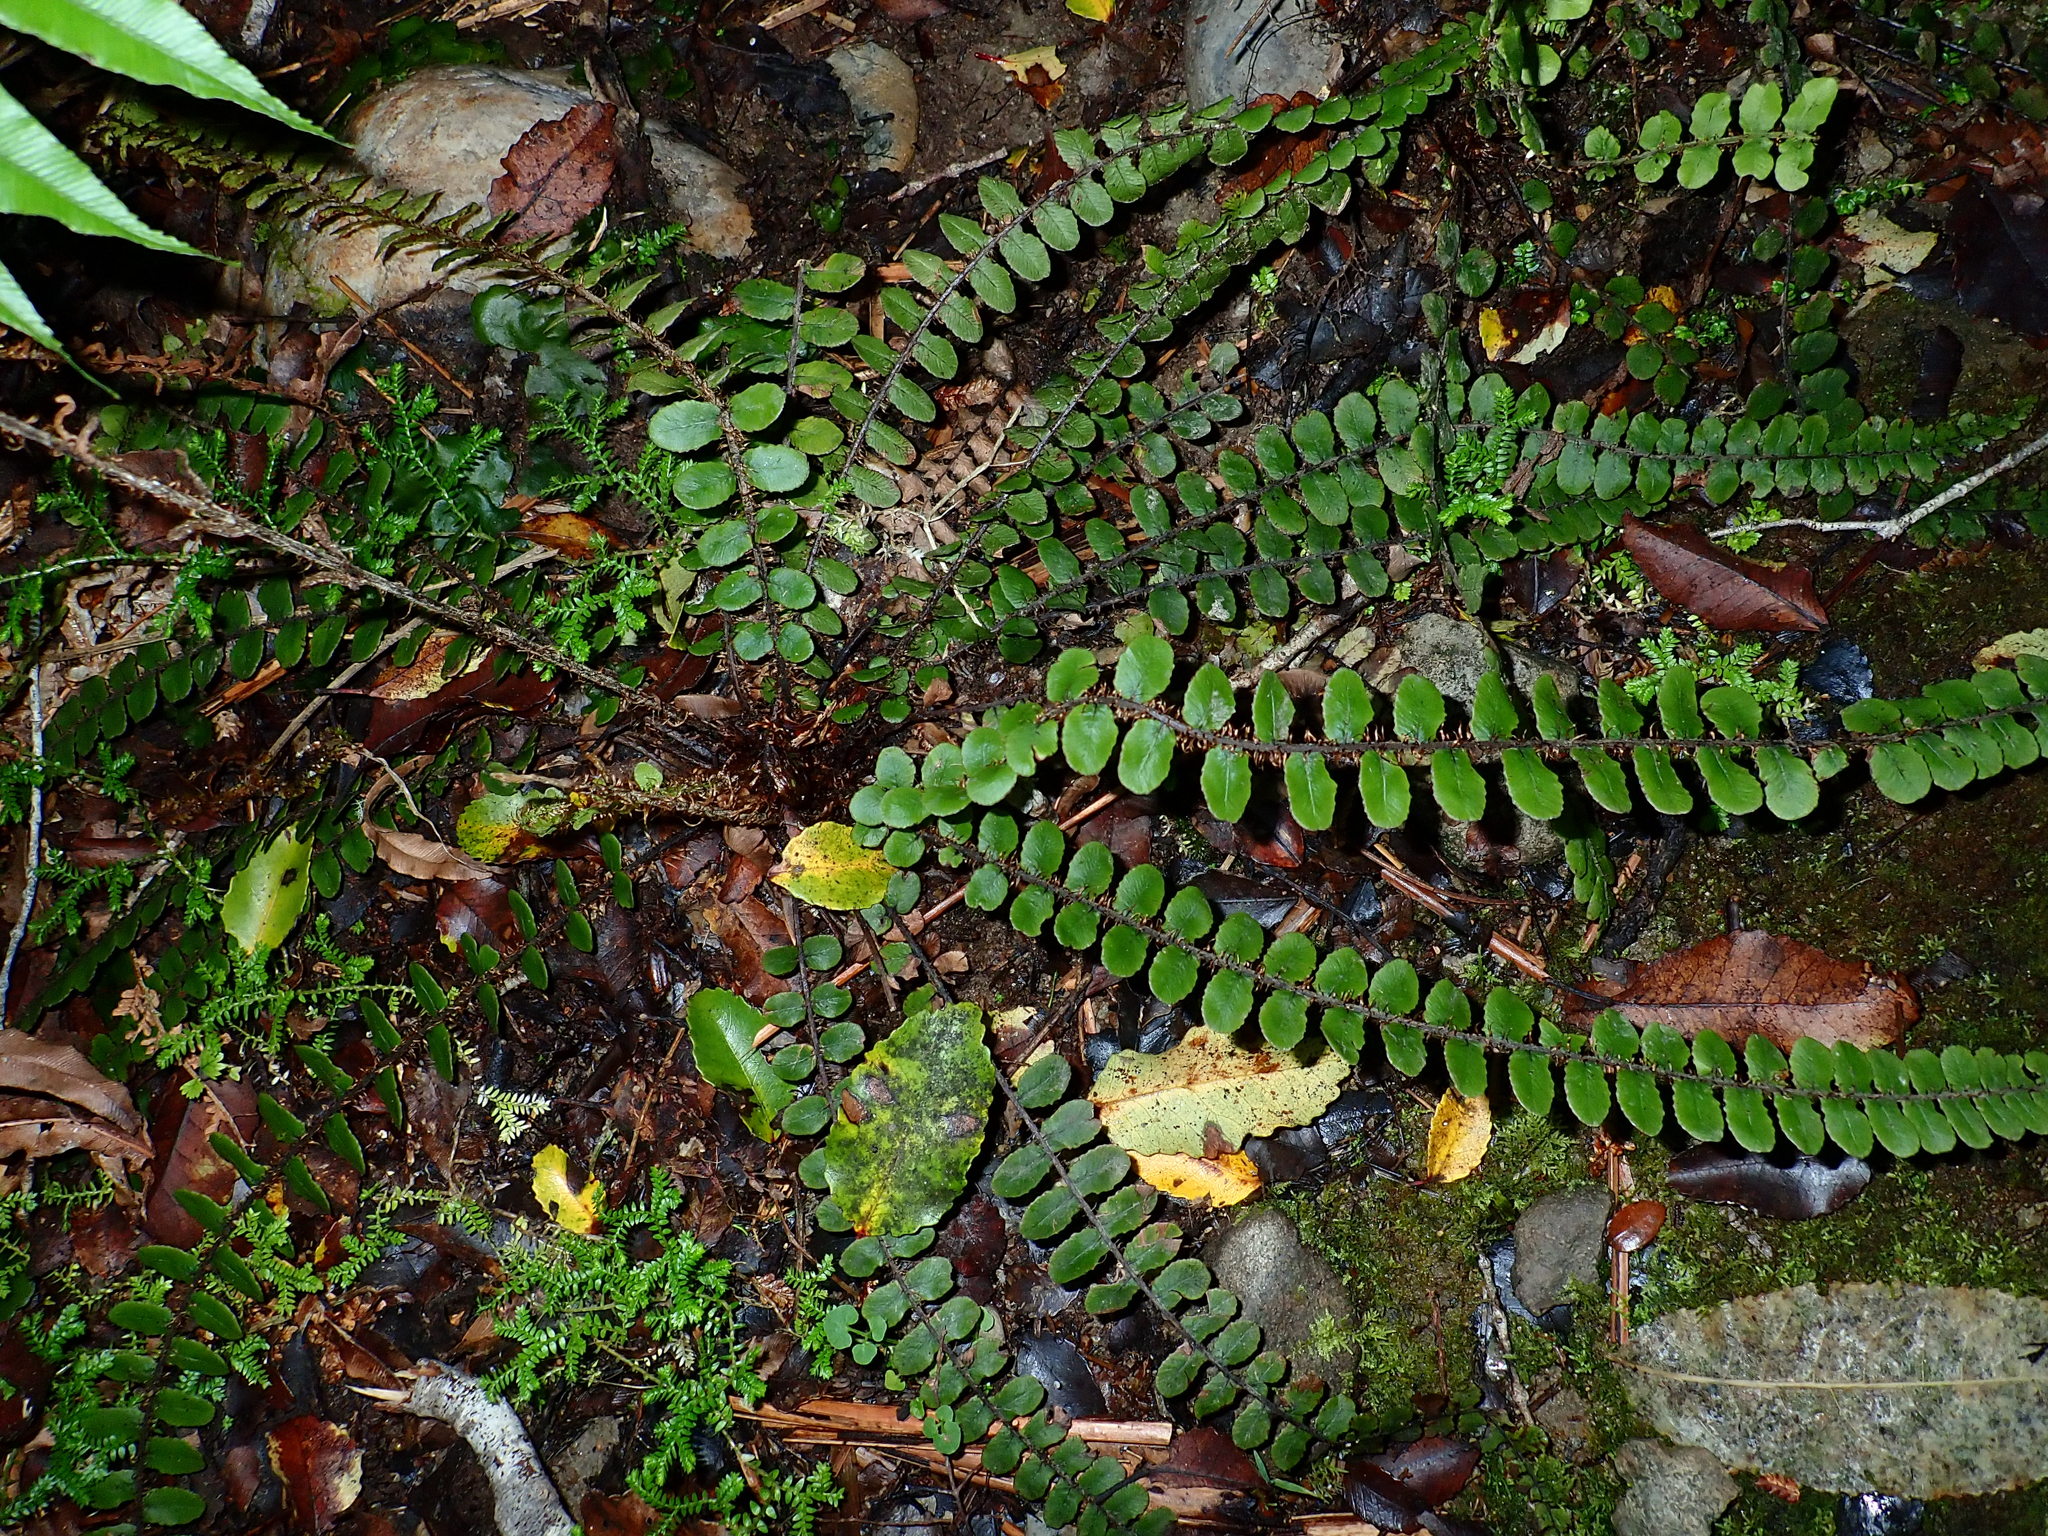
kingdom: Plantae
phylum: Tracheophyta
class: Polypodiopsida
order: Polypodiales
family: Blechnaceae
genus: Cranfillia
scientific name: Cranfillia fluviatilis
